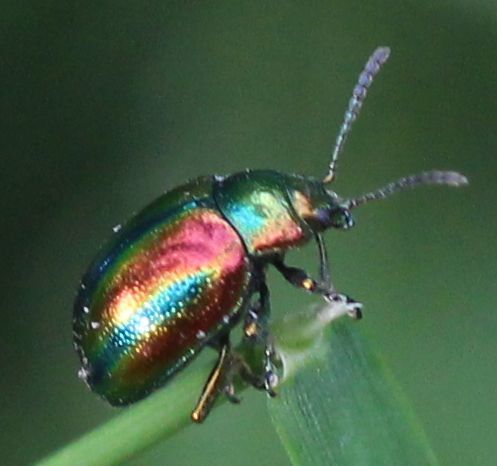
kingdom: Animalia
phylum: Arthropoda
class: Insecta
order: Coleoptera
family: Chrysomelidae
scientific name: Chrysomelidae
